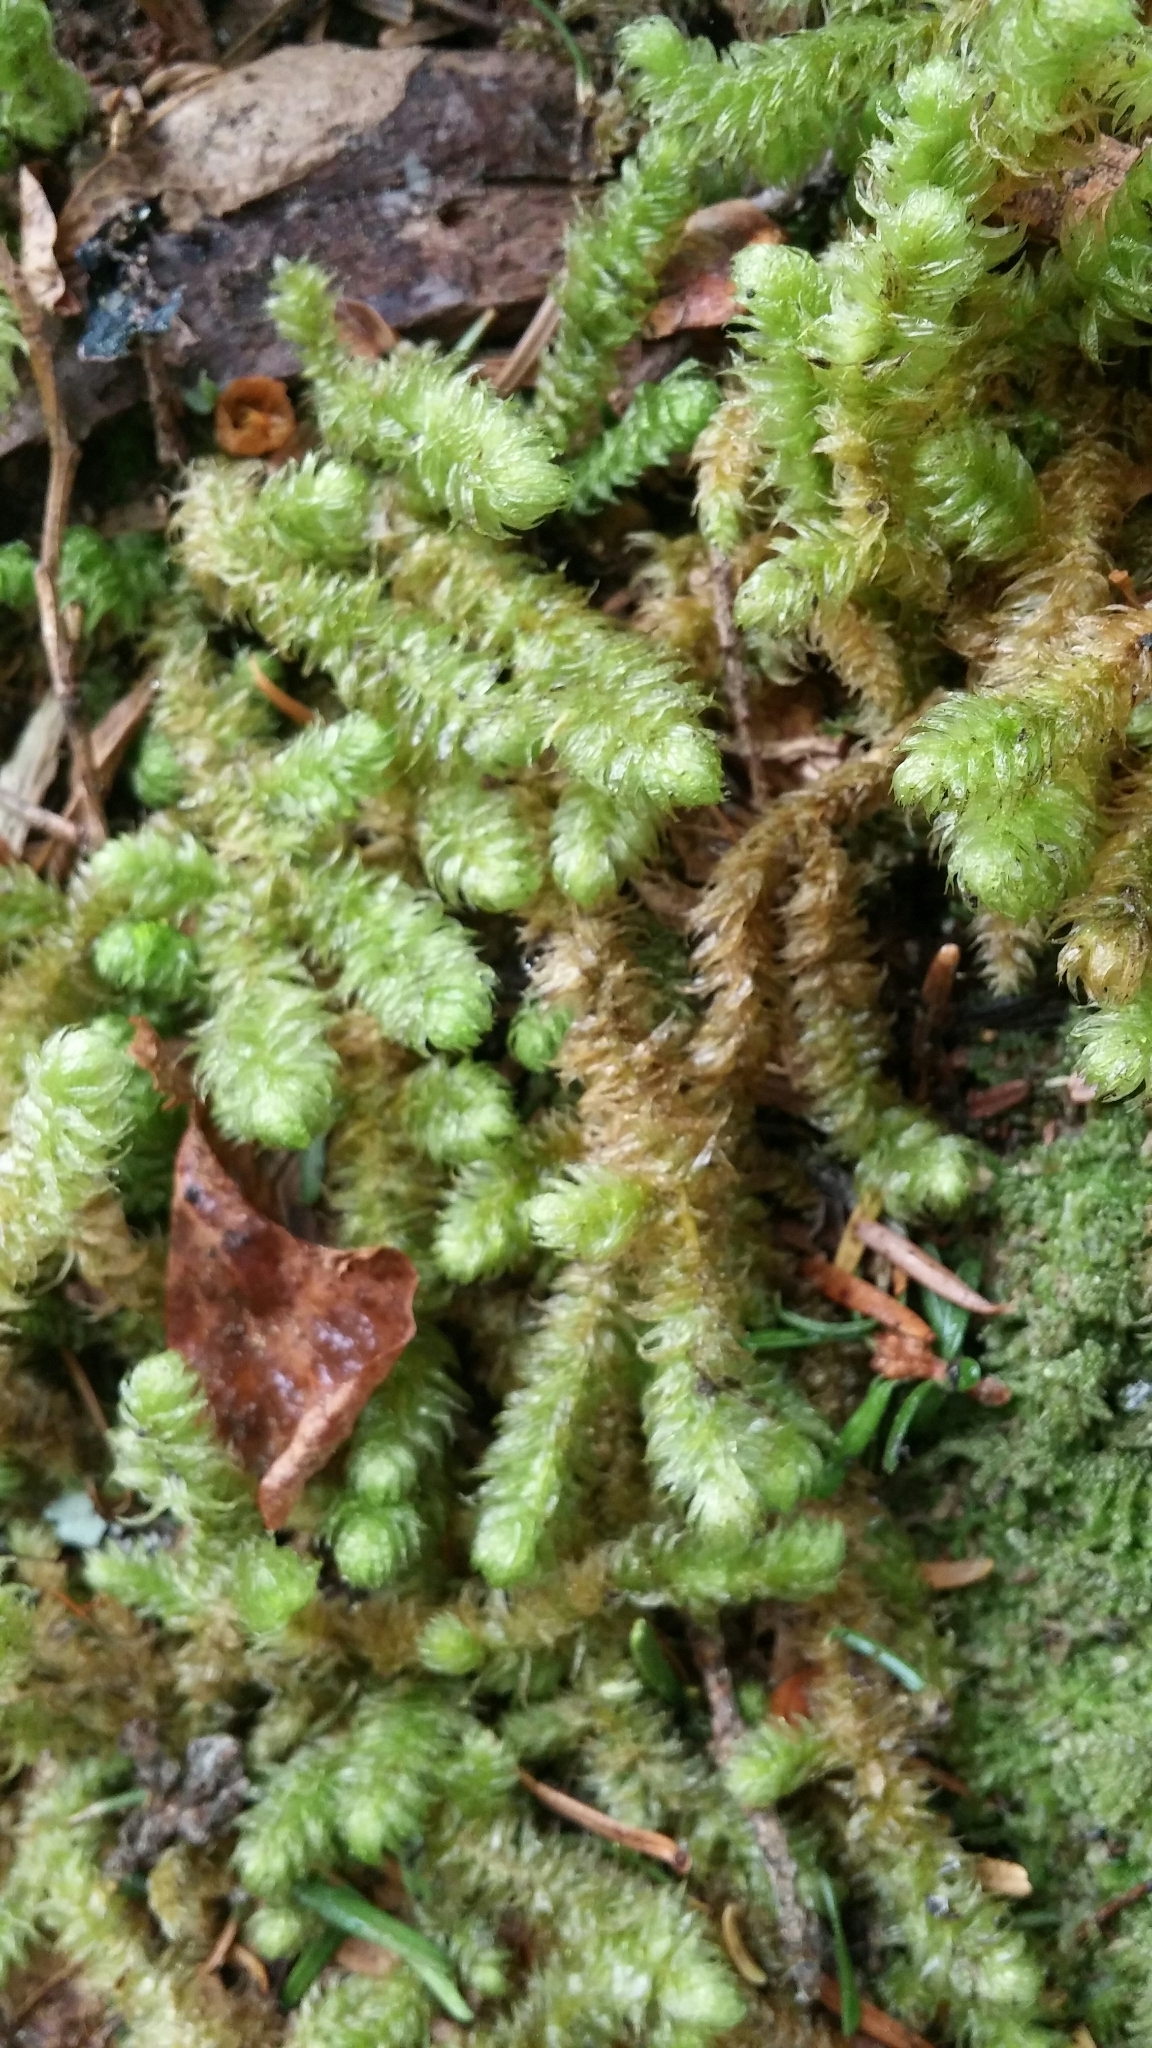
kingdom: Plantae
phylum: Bryophyta
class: Bryopsida
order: Hypnales
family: Hylocomiaceae
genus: Rhytidiopsis
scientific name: Rhytidiopsis robusta
